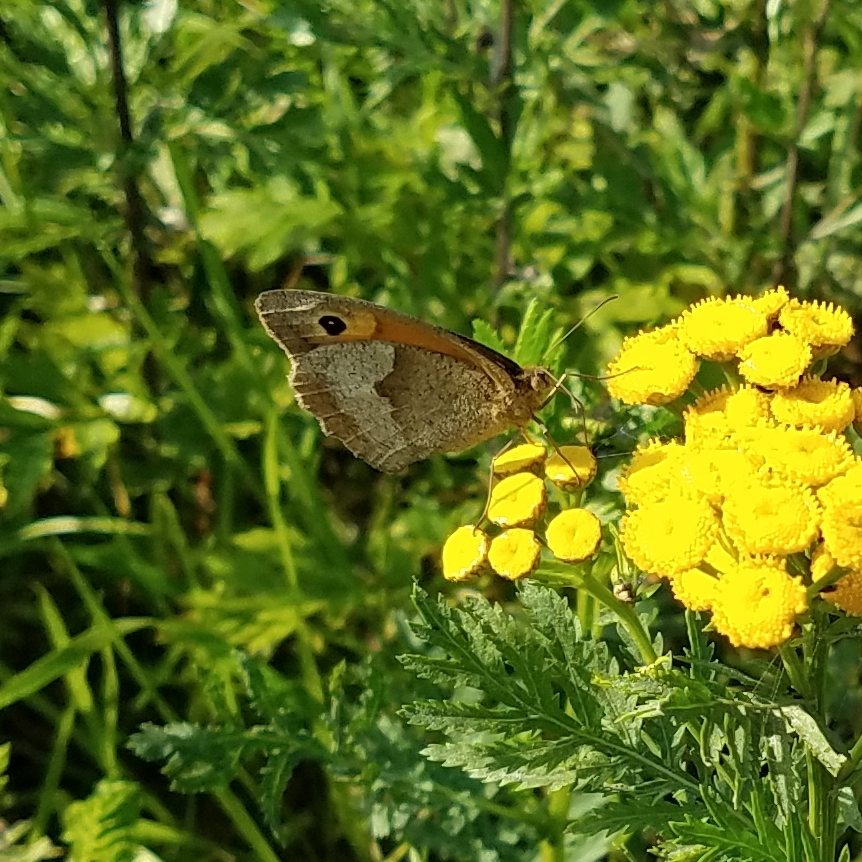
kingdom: Animalia
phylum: Arthropoda
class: Insecta
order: Lepidoptera
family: Nymphalidae
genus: Maniola
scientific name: Maniola jurtina
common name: Meadow brown
